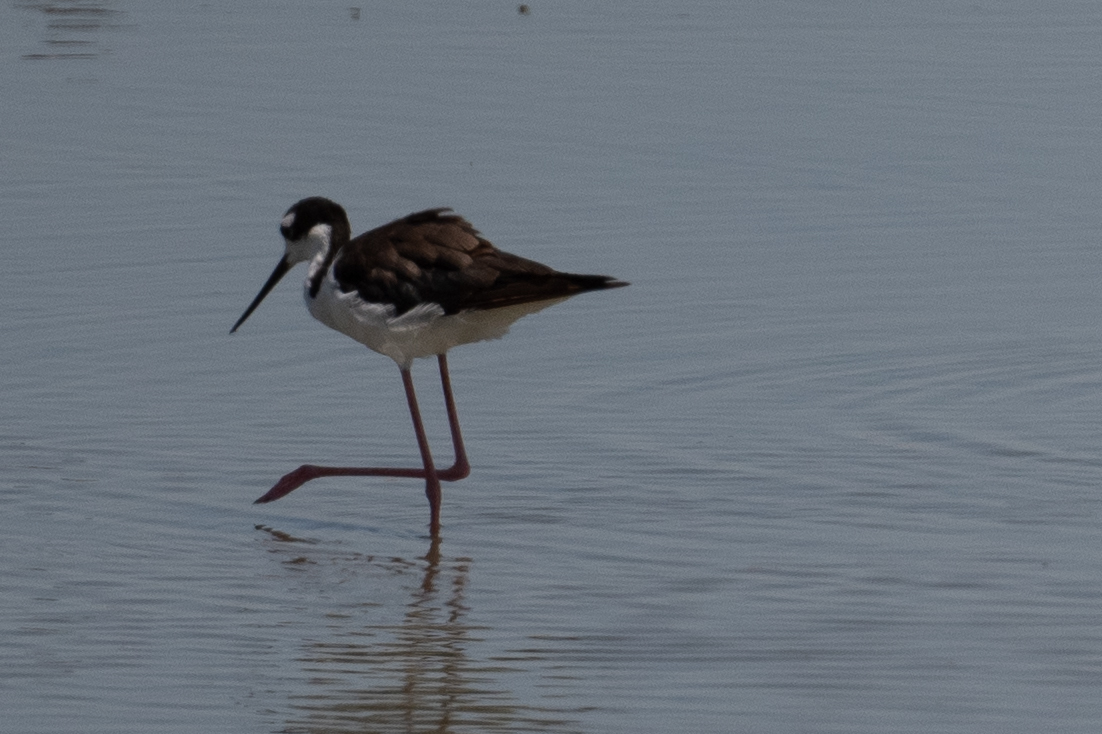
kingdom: Animalia
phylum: Chordata
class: Aves
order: Charadriiformes
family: Recurvirostridae
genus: Himantopus
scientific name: Himantopus mexicanus
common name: Black-necked stilt
